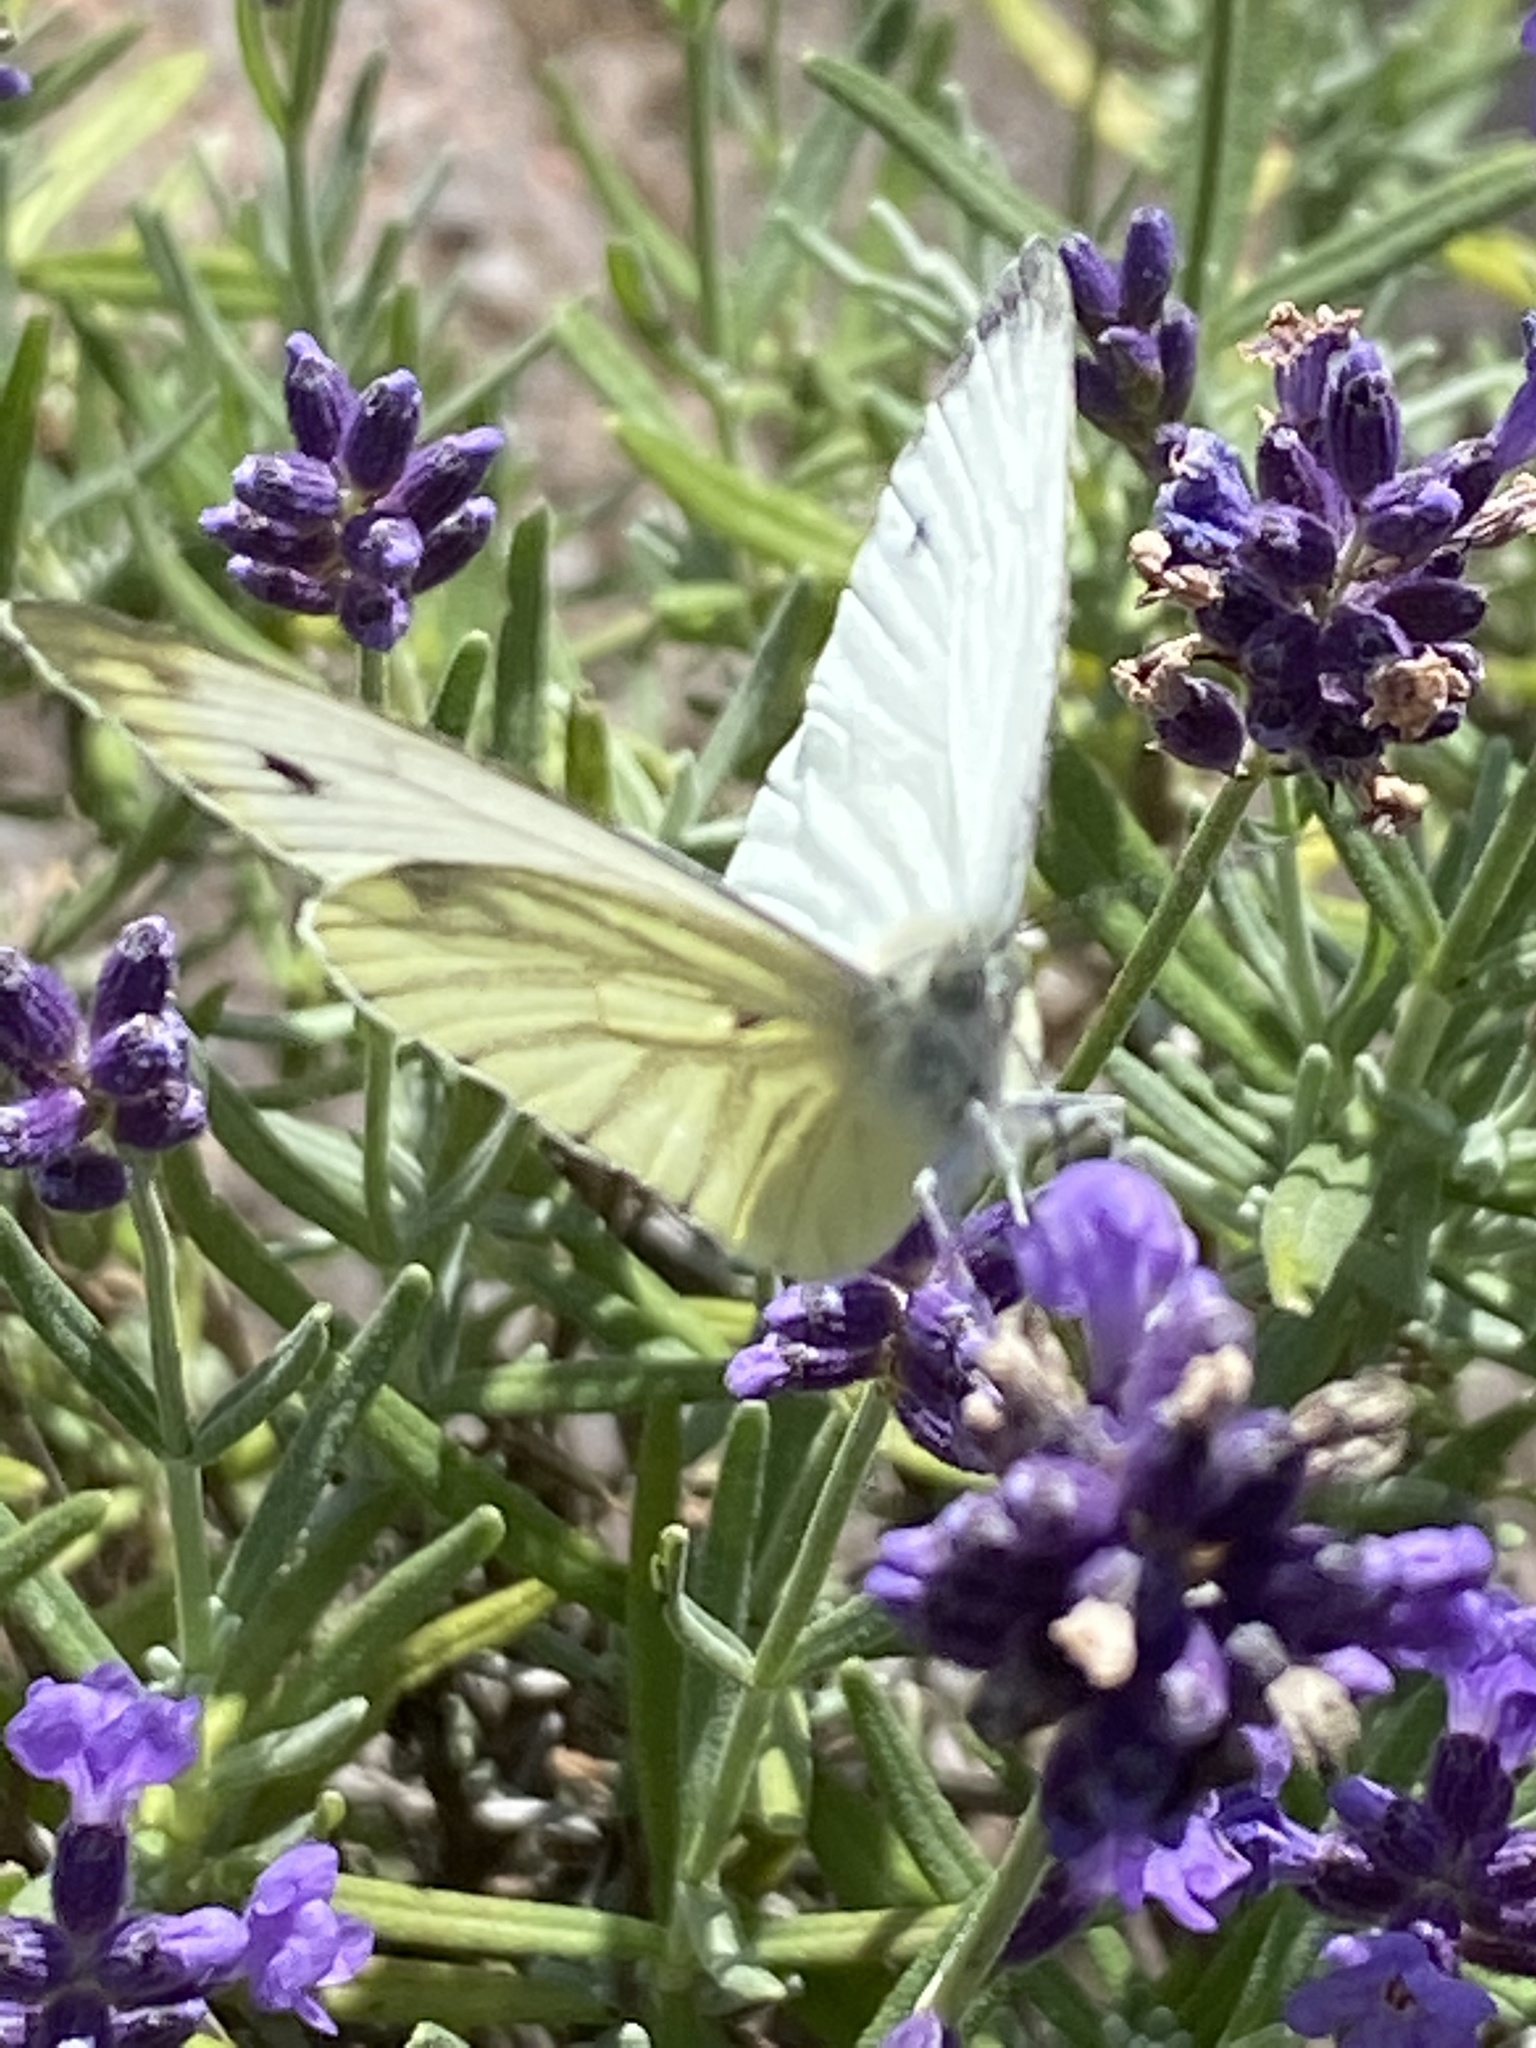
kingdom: Animalia
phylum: Arthropoda
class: Insecta
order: Lepidoptera
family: Pieridae
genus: Pieris
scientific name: Pieris napi
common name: Green-veined white
